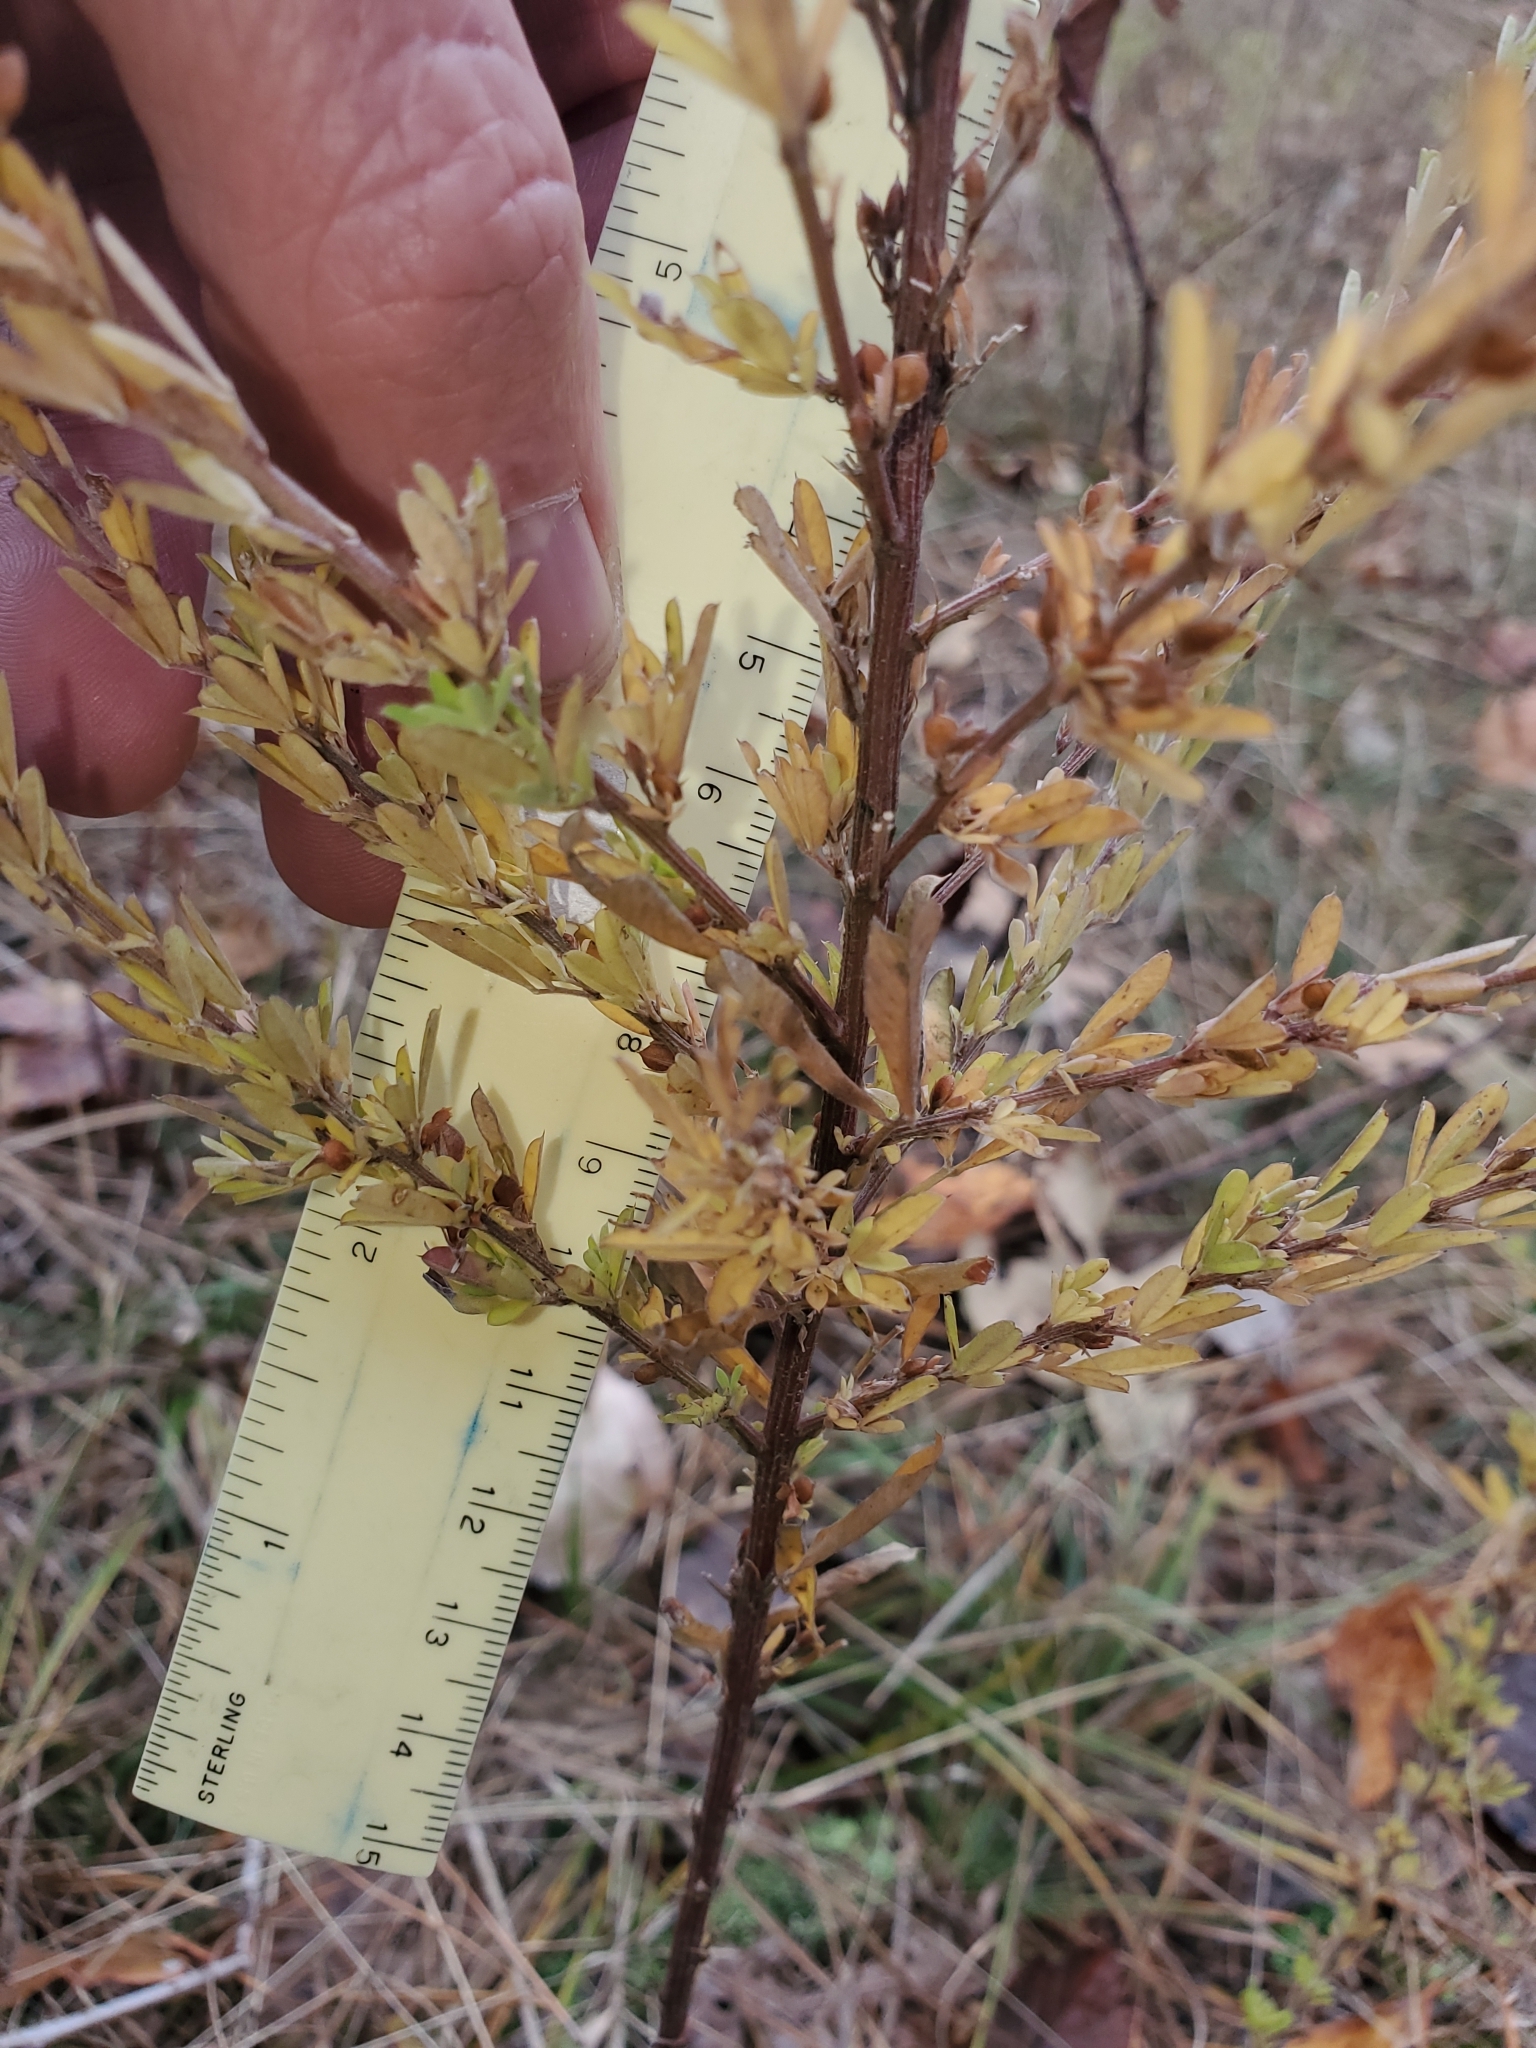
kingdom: Plantae
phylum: Tracheophyta
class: Magnoliopsida
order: Fabales
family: Fabaceae
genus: Lespedeza
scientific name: Lespedeza cuneata
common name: Chinese bush-clover
